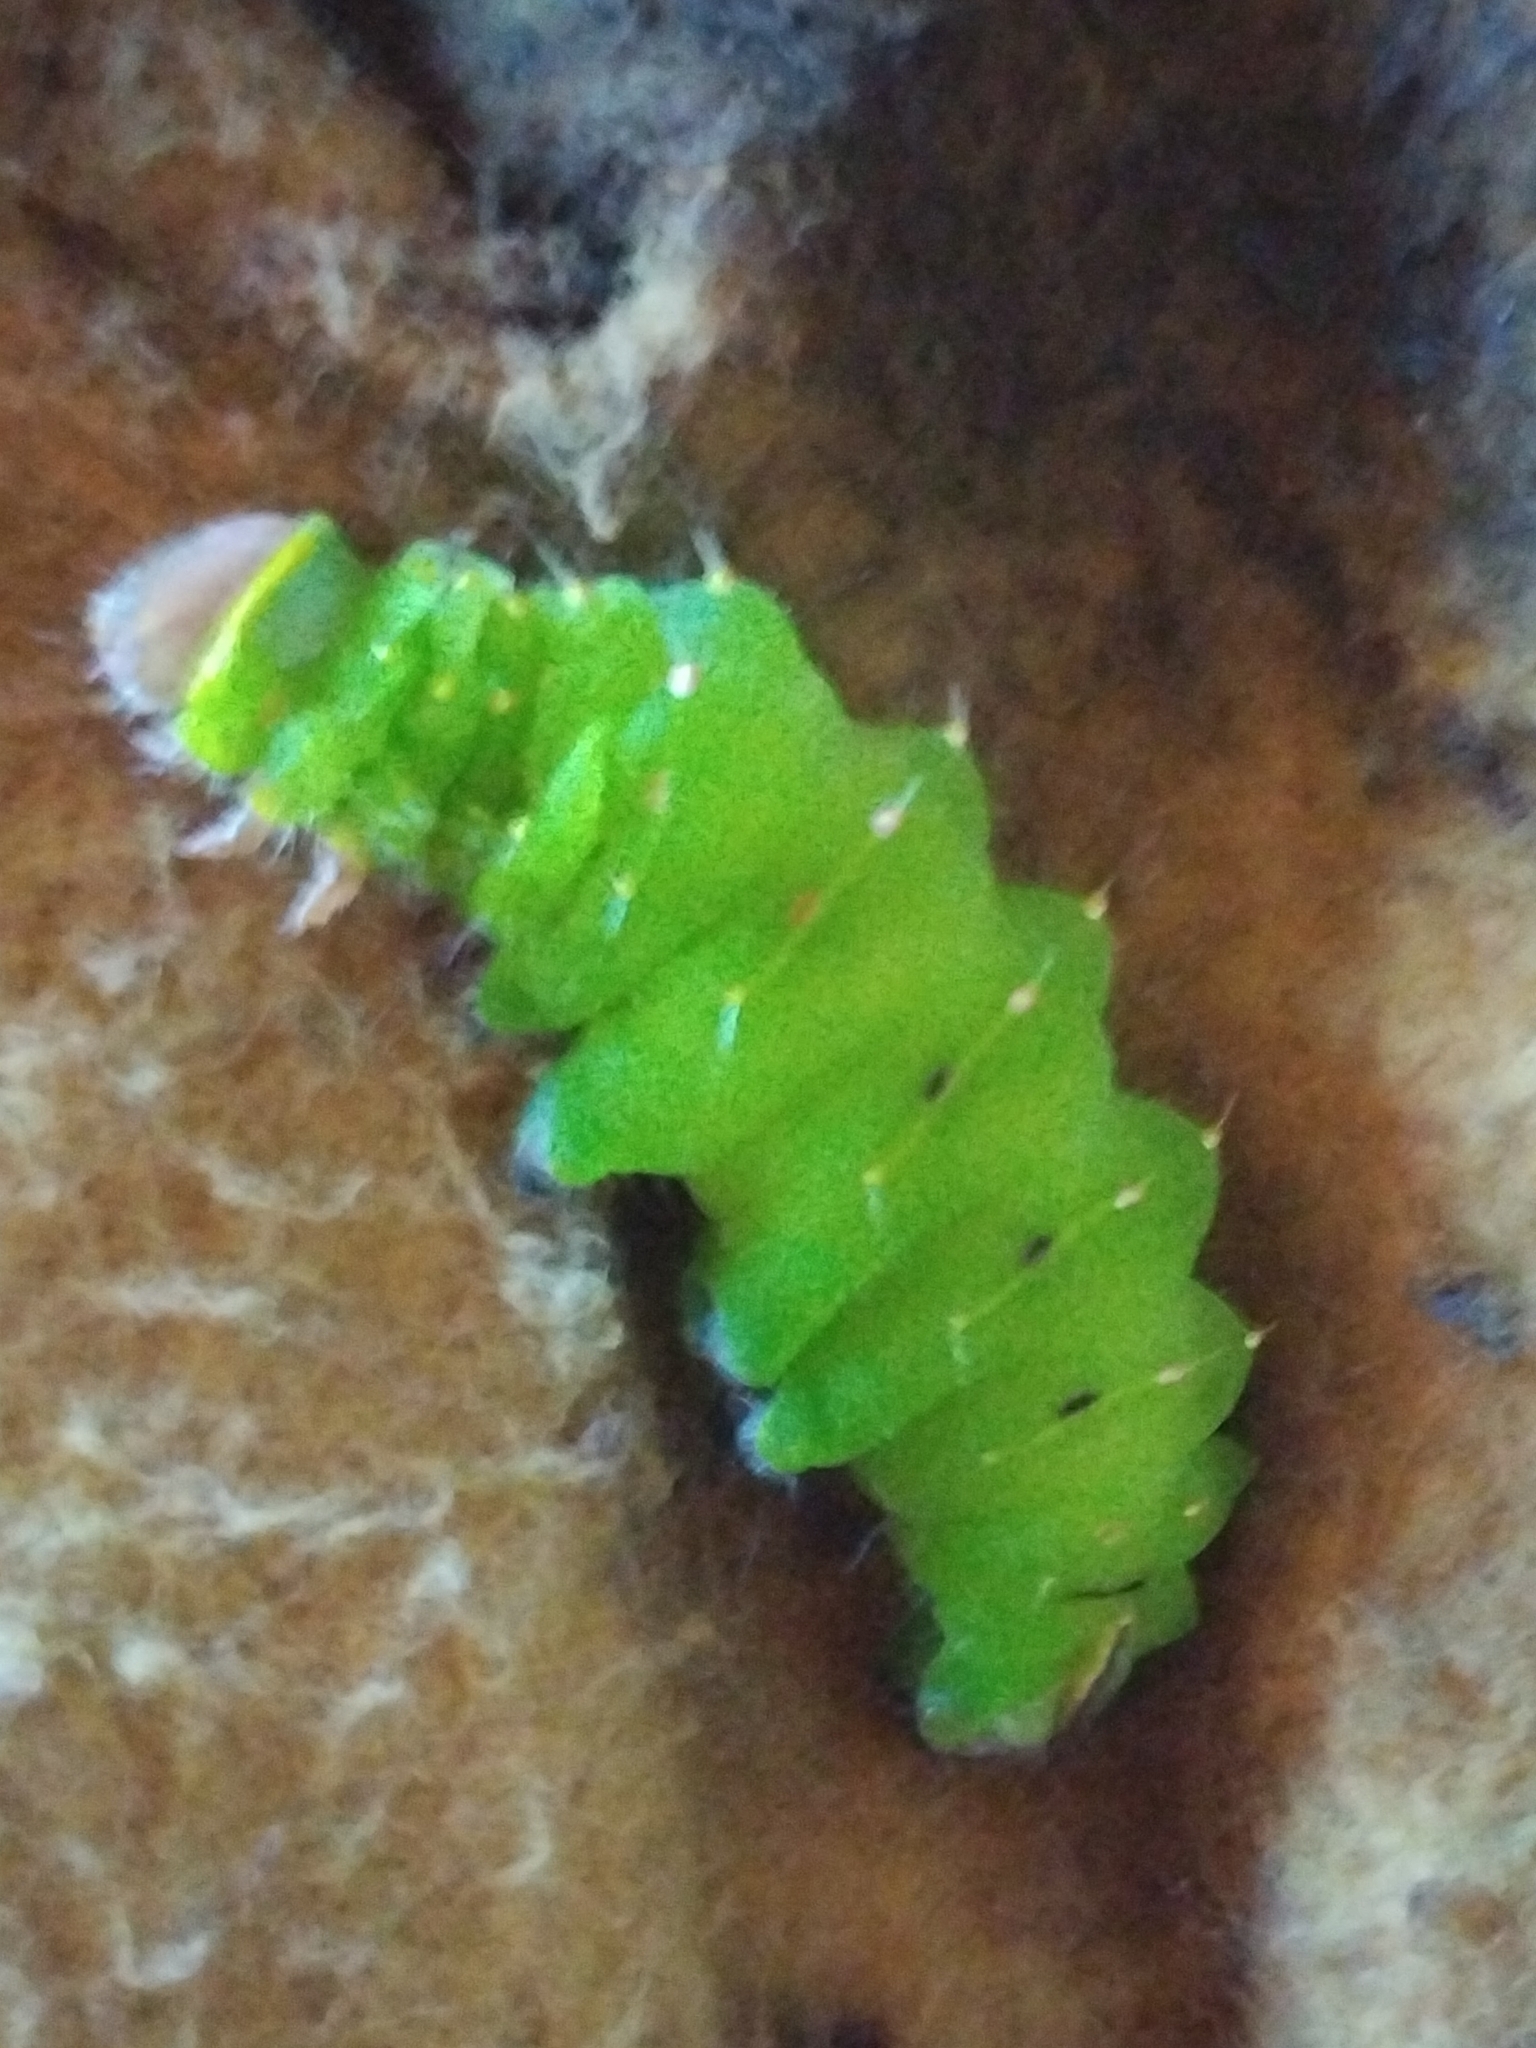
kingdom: Animalia
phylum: Arthropoda
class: Insecta
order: Lepidoptera
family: Saturniidae
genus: Antheraea
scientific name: Antheraea polyphemus
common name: Polyphemus moth
